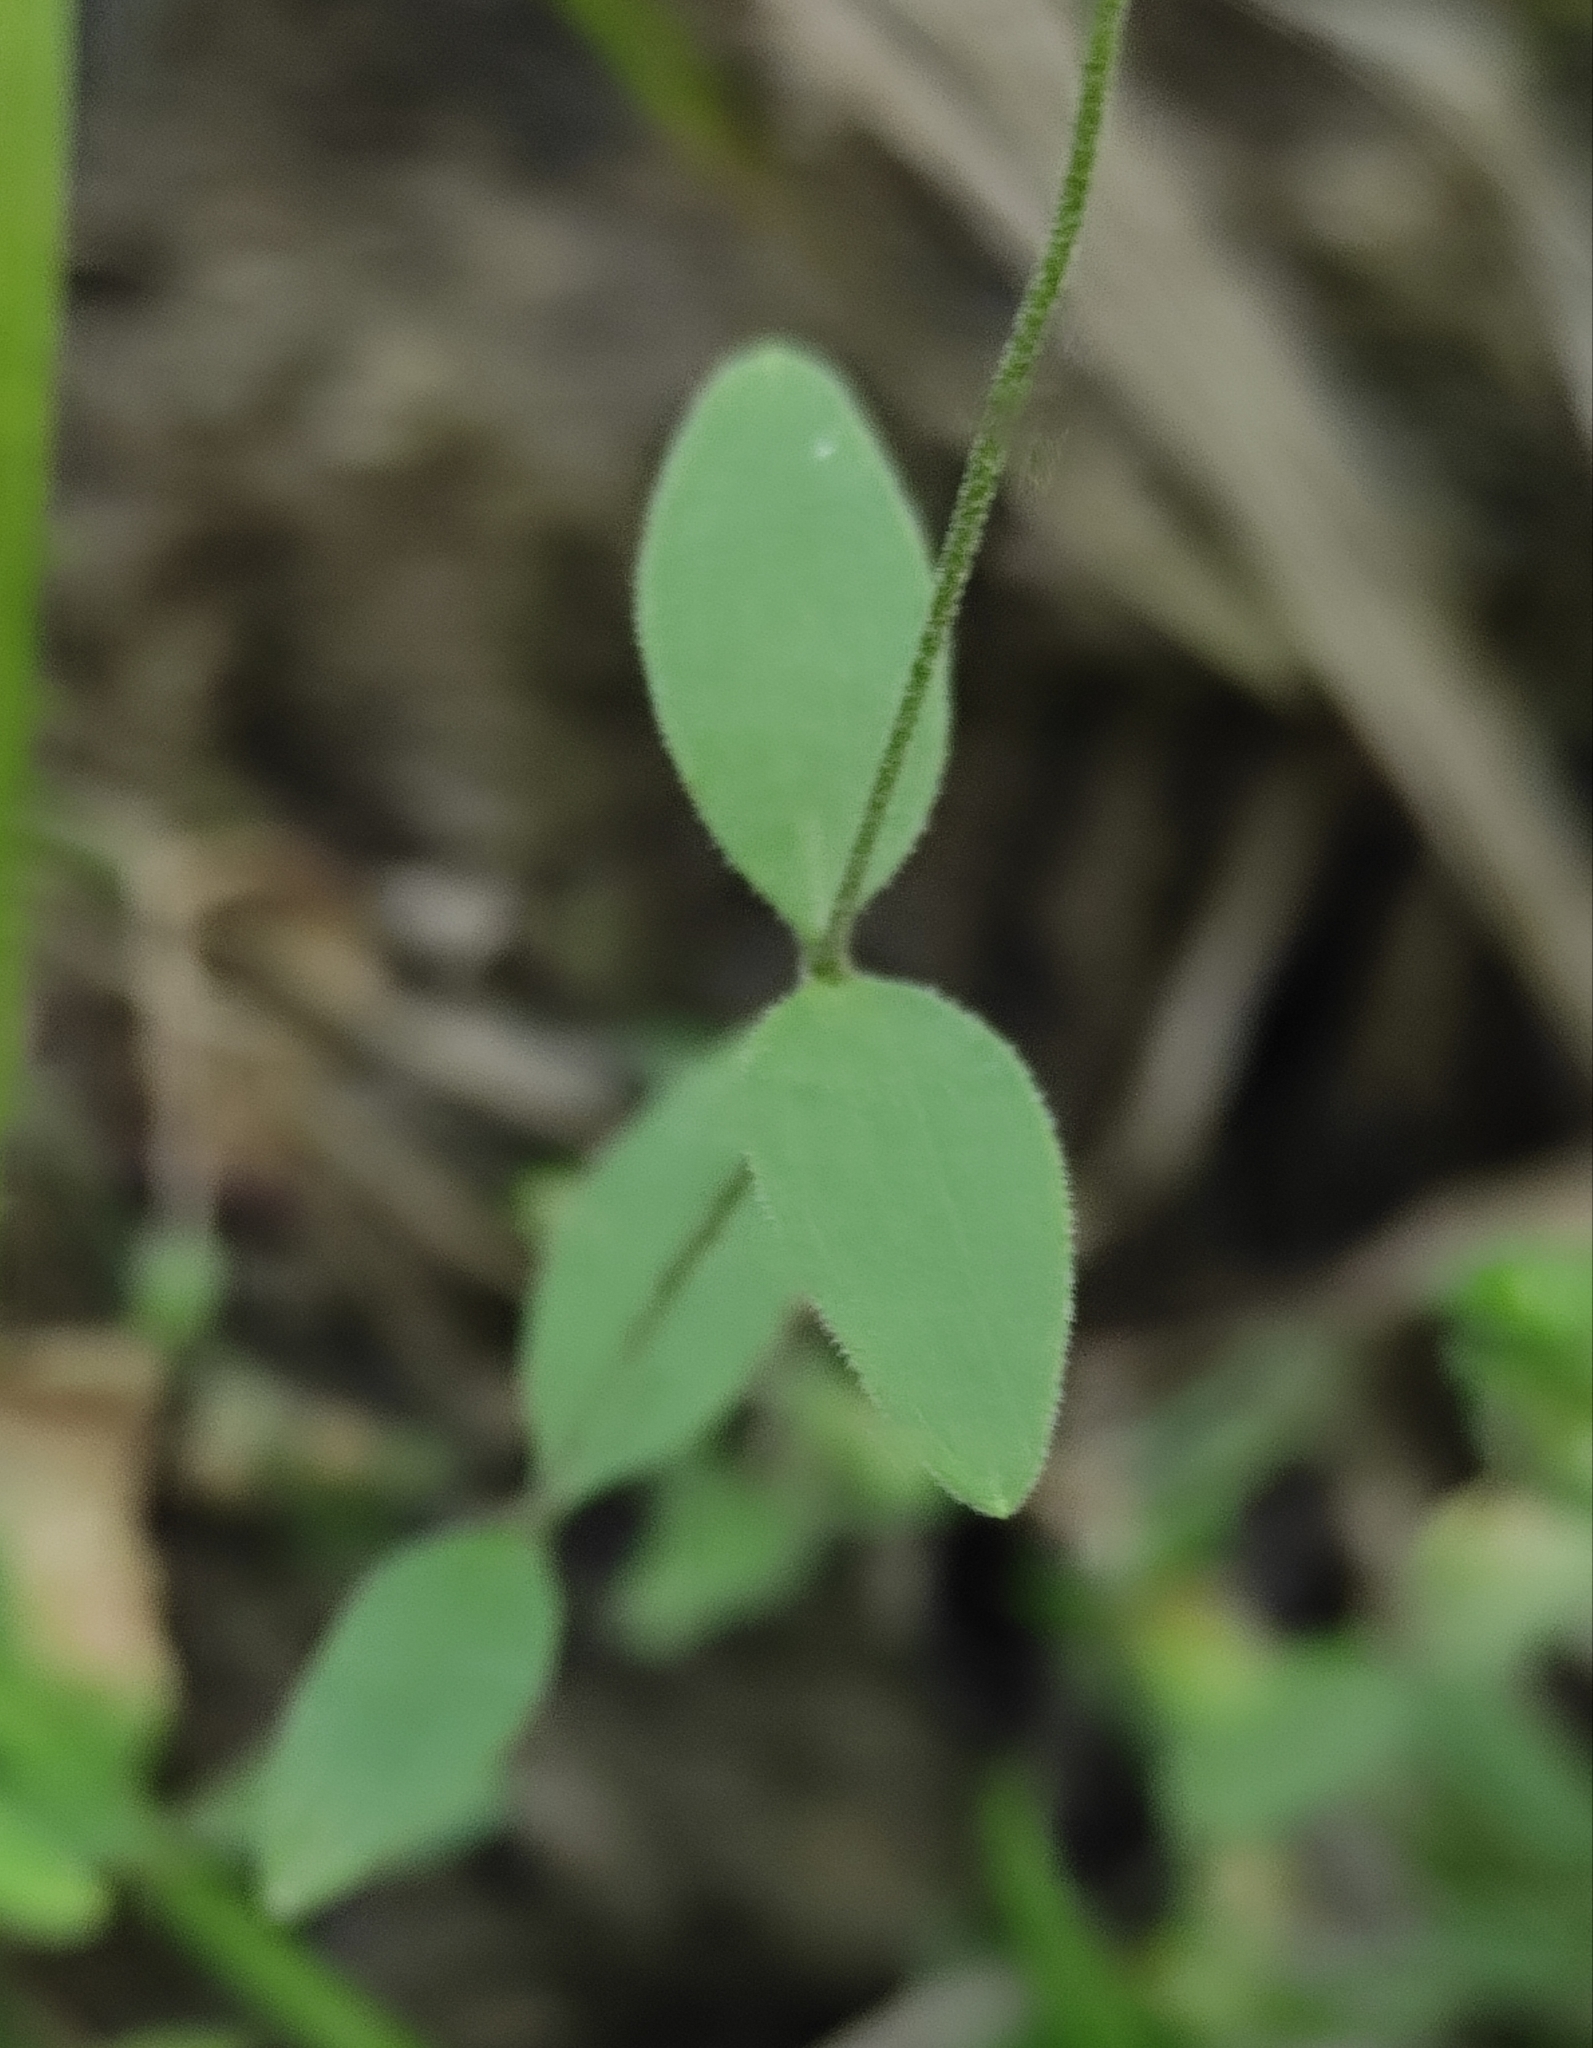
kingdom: Plantae
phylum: Tracheophyta
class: Magnoliopsida
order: Caryophyllales
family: Caryophyllaceae
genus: Moehringia
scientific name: Moehringia lateriflora
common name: Blunt-leaved sandwort
